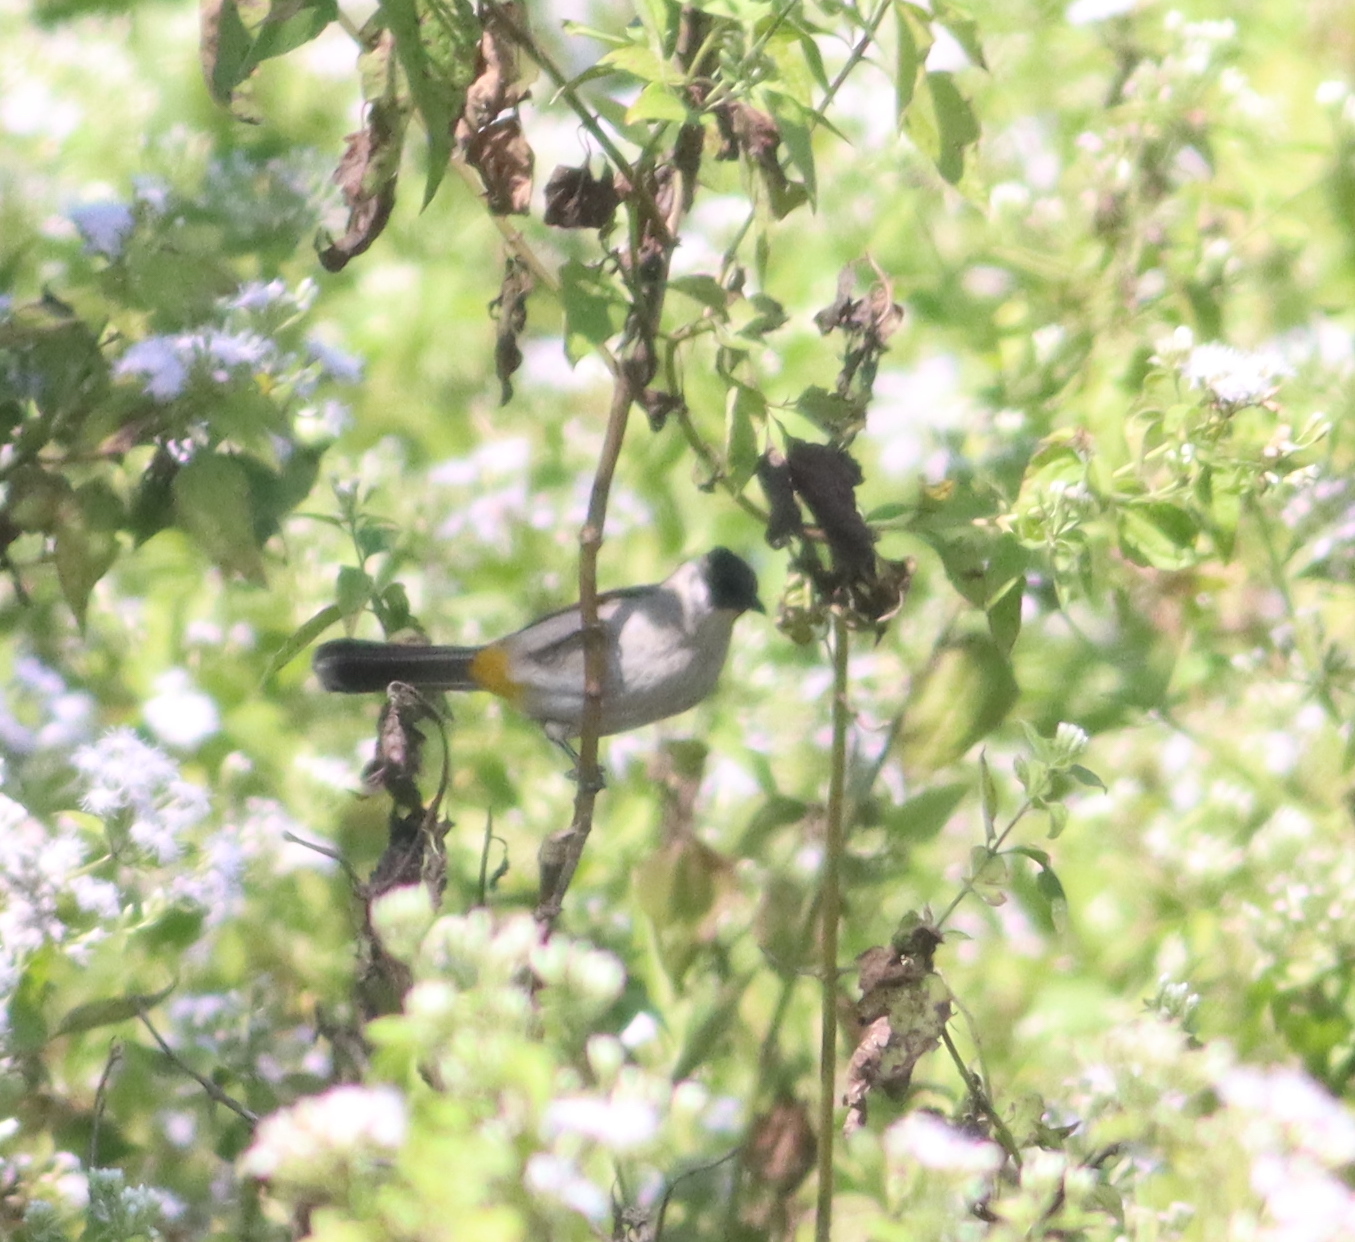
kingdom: Animalia
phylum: Chordata
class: Aves
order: Passeriformes
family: Pycnonotidae
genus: Pycnonotus
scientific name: Pycnonotus aurigaster
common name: Sooty-headed bulbul
